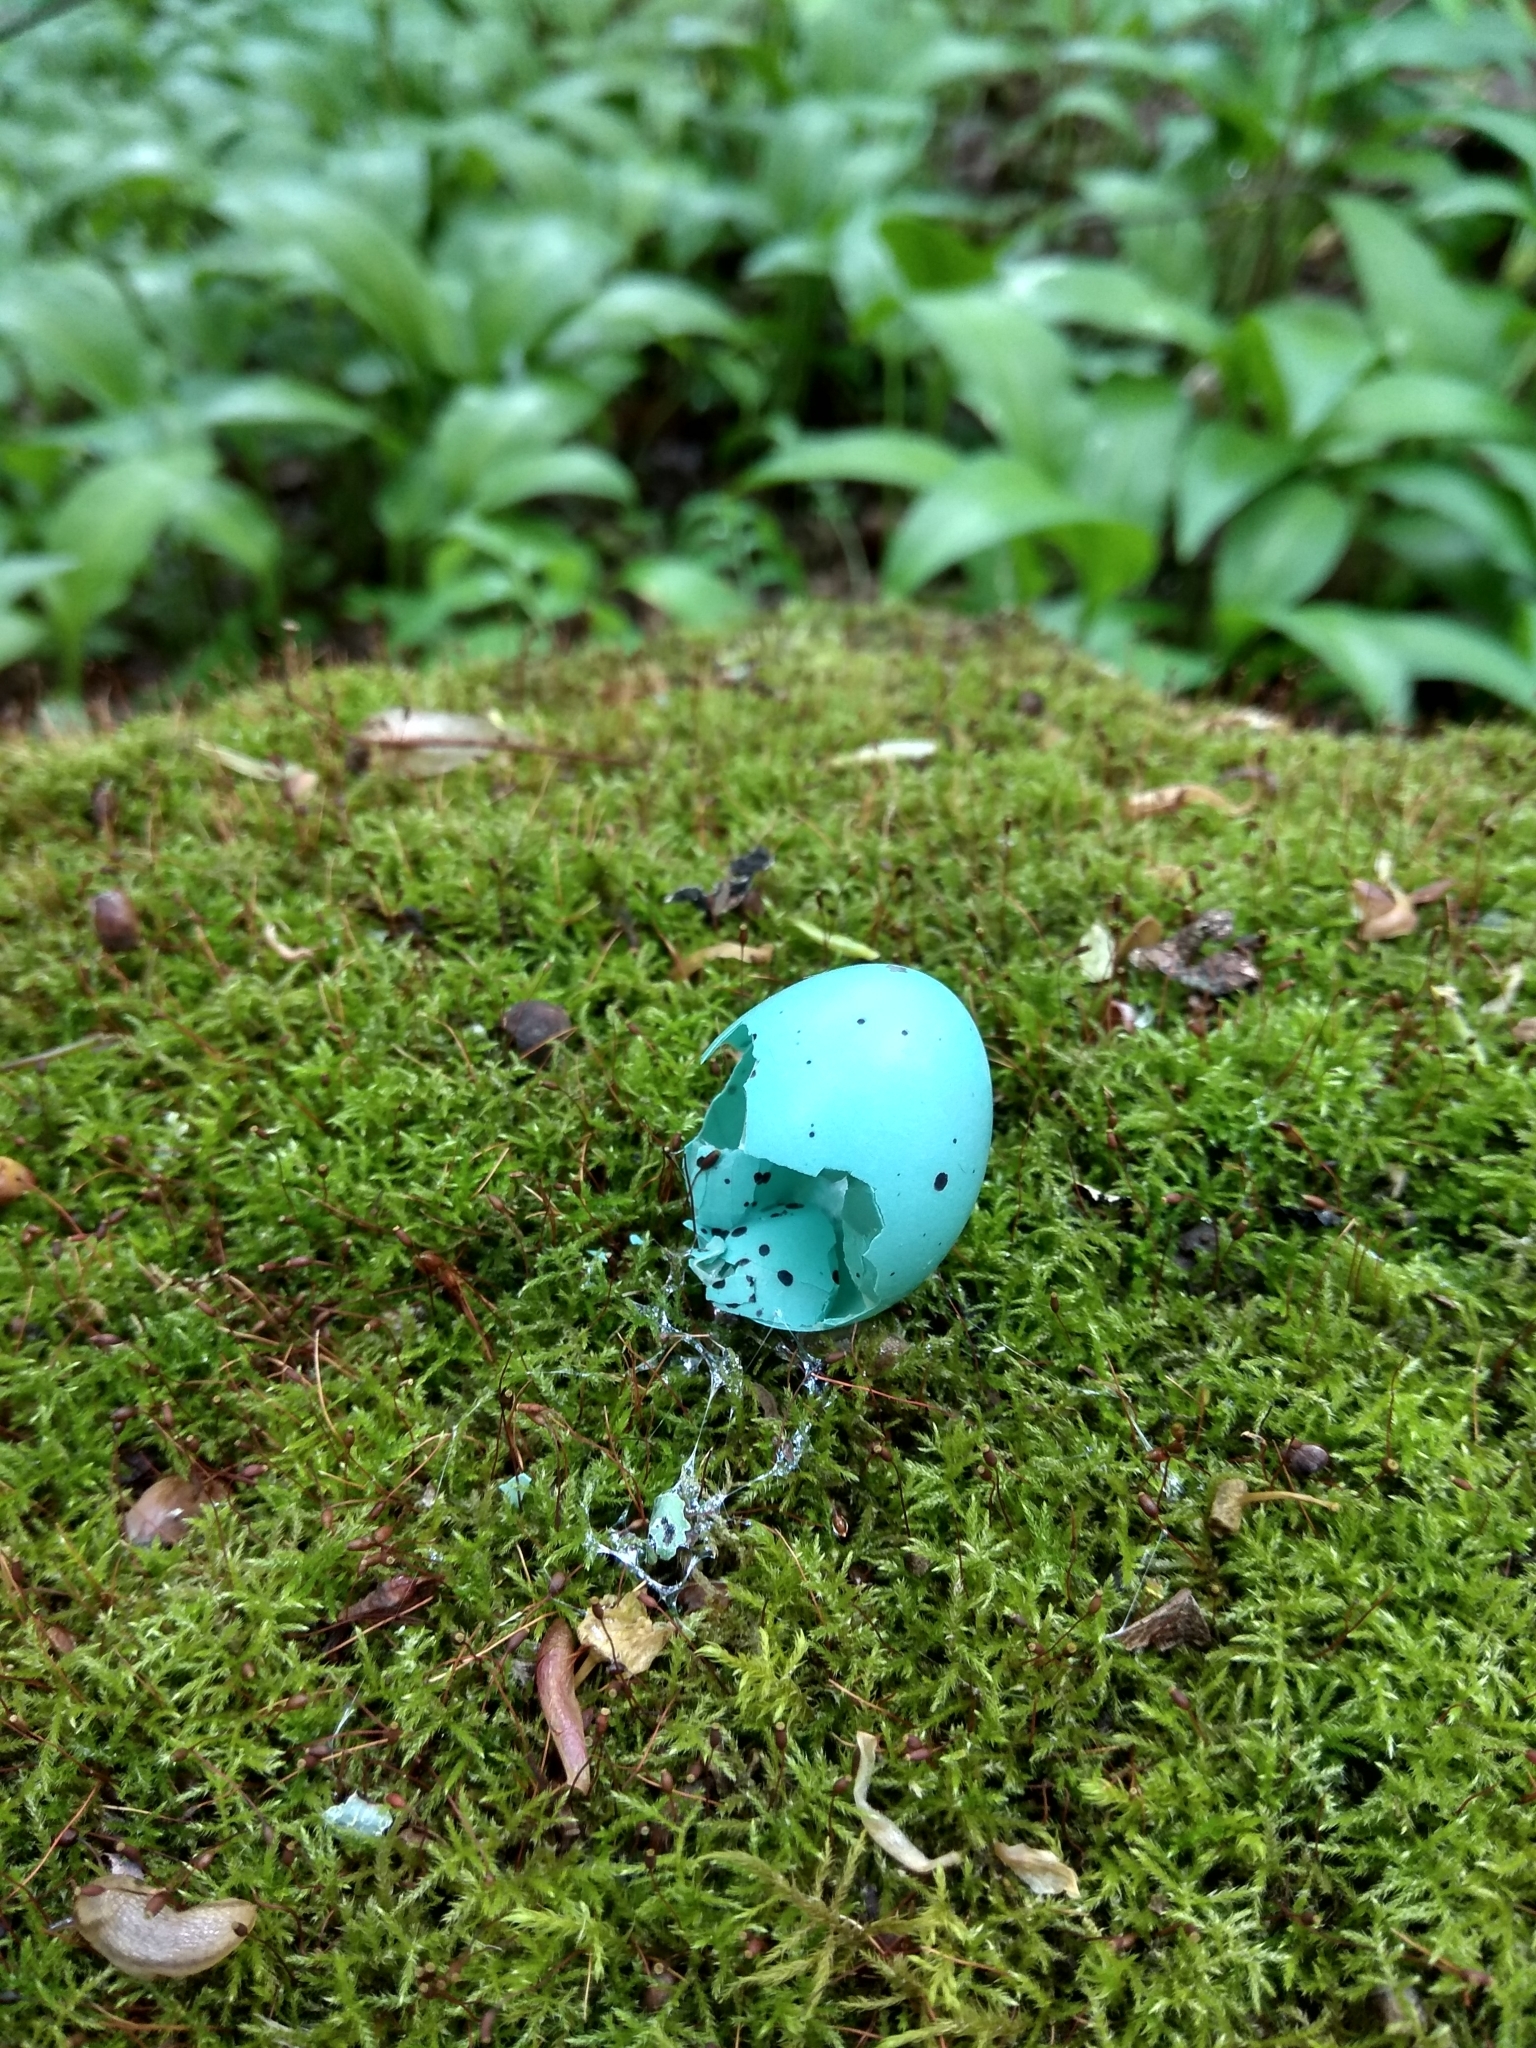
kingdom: Animalia
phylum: Chordata
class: Aves
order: Passeriformes
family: Turdidae
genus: Turdus
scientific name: Turdus philomelos
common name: Song thrush
